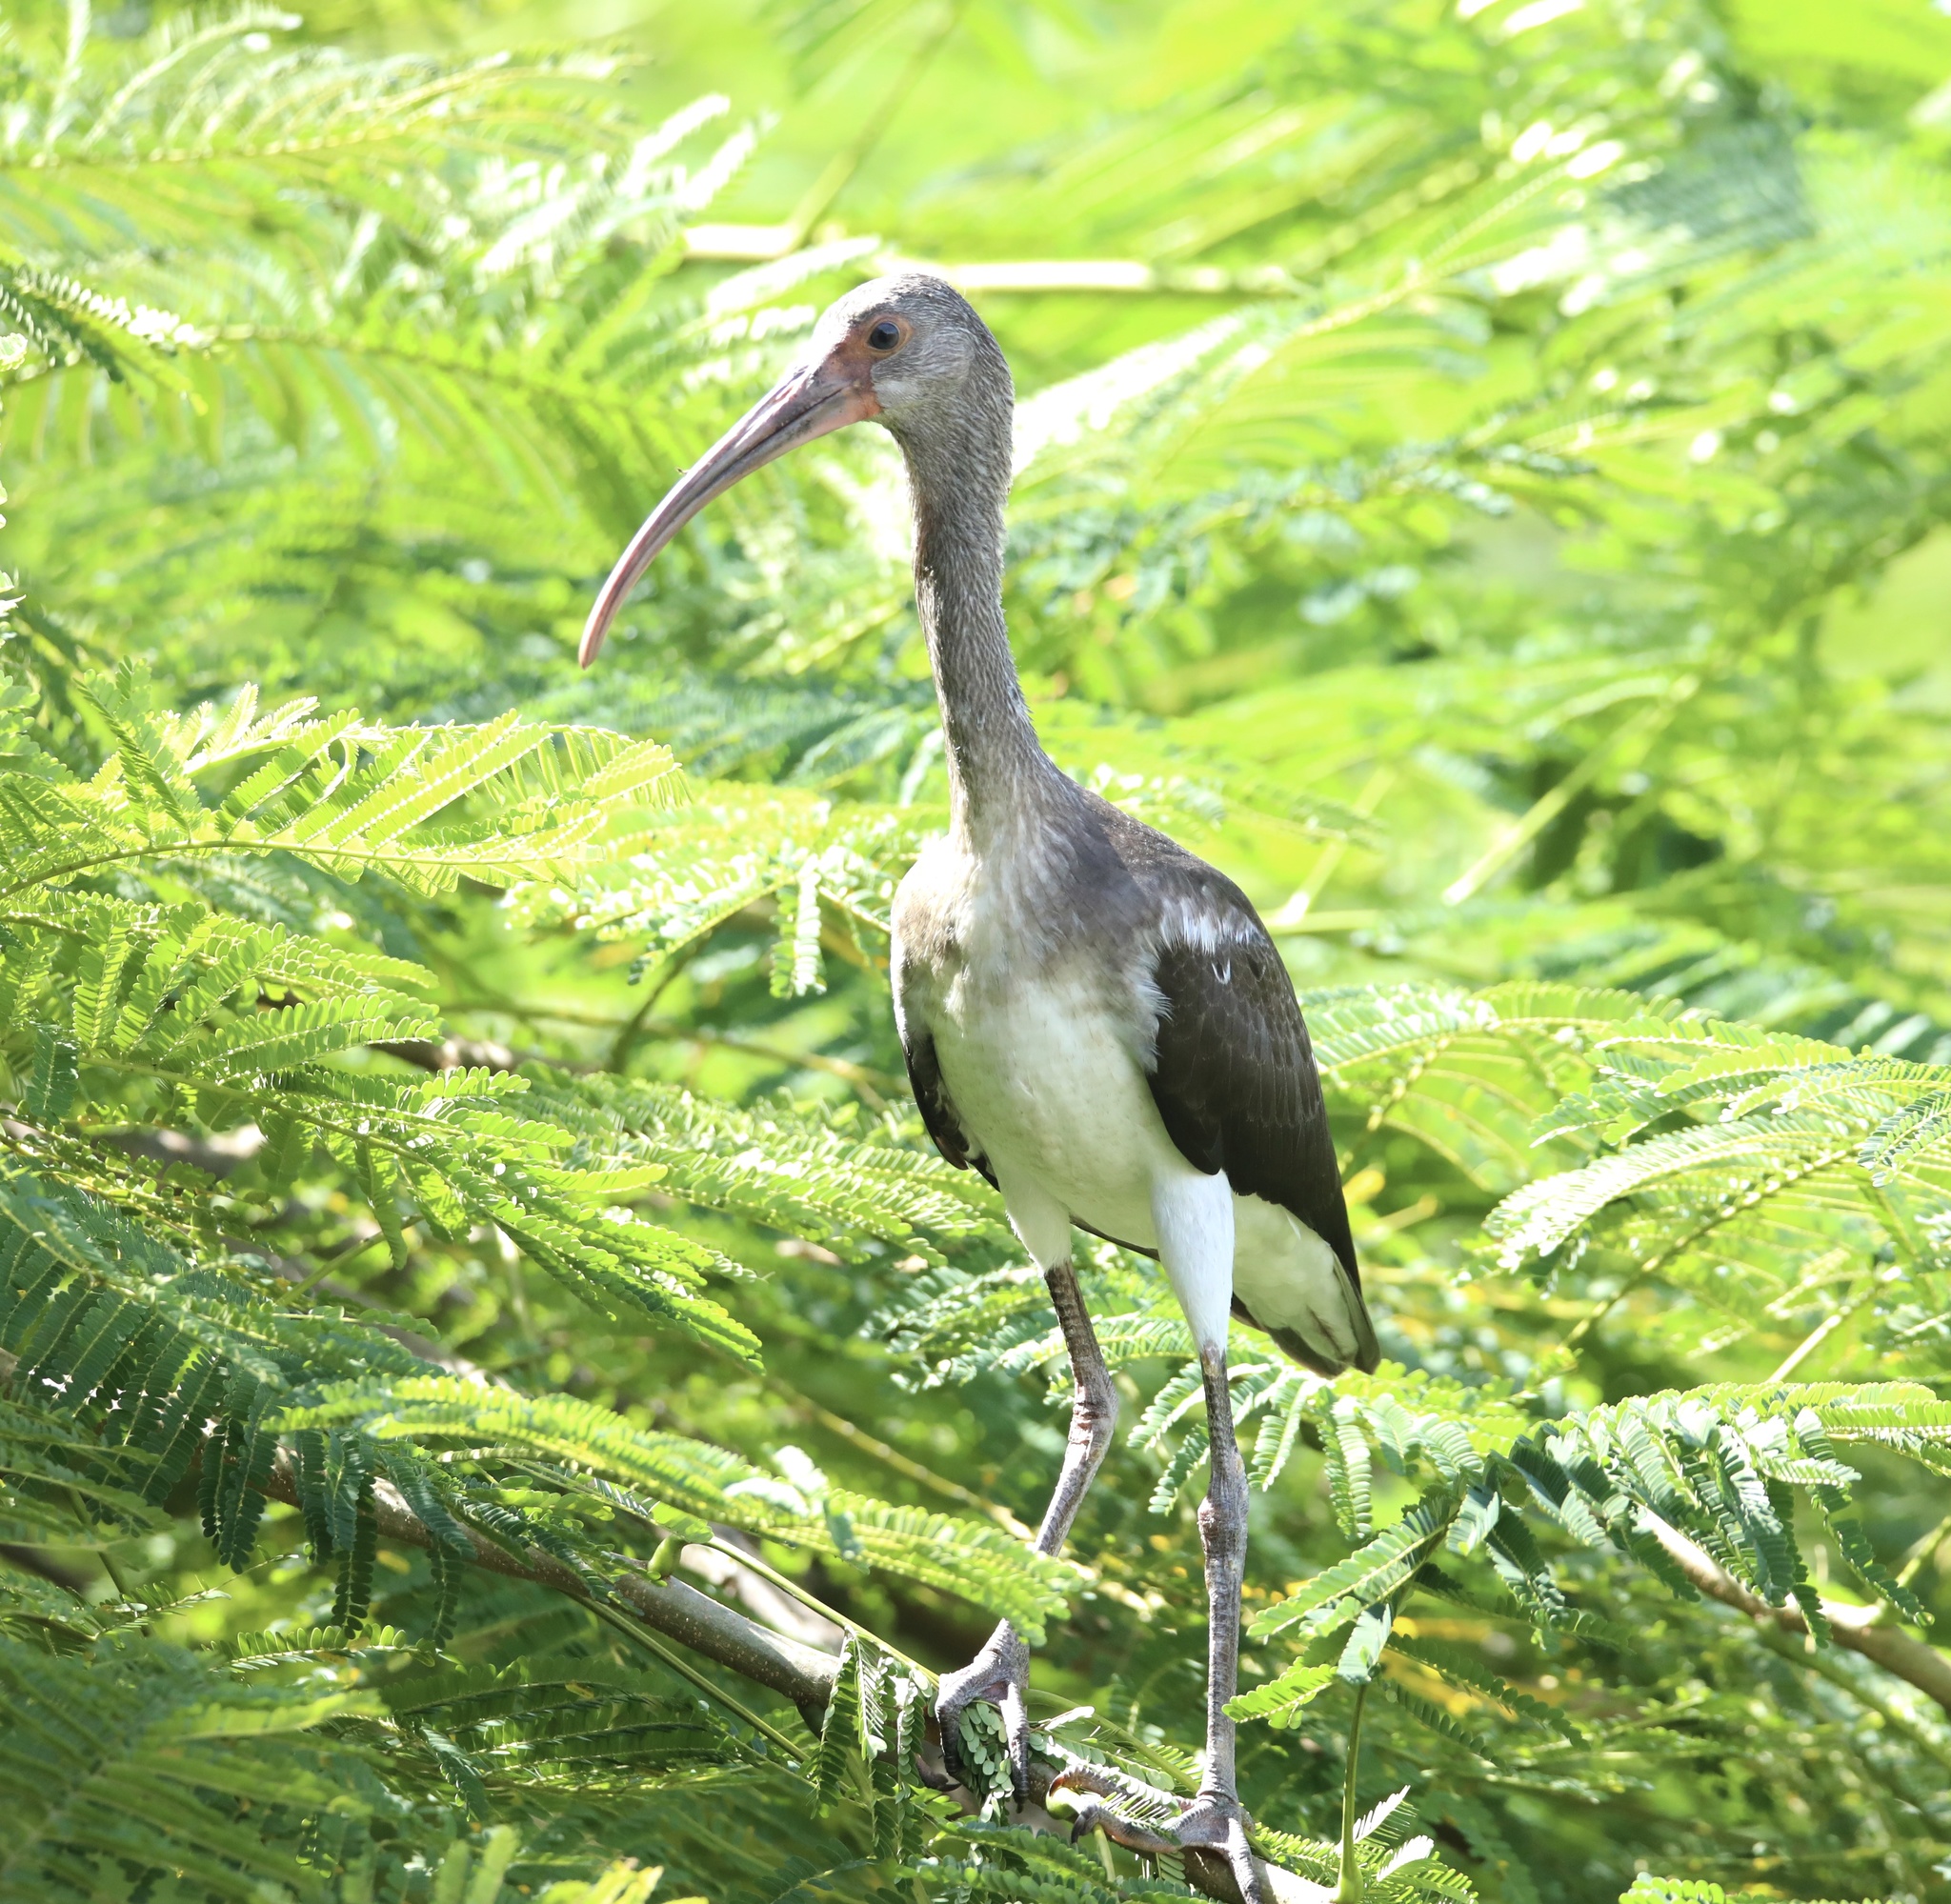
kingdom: Animalia
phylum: Chordata
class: Aves
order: Pelecaniformes
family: Threskiornithidae
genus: Eudocimus
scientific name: Eudocimus albus
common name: White ibis
